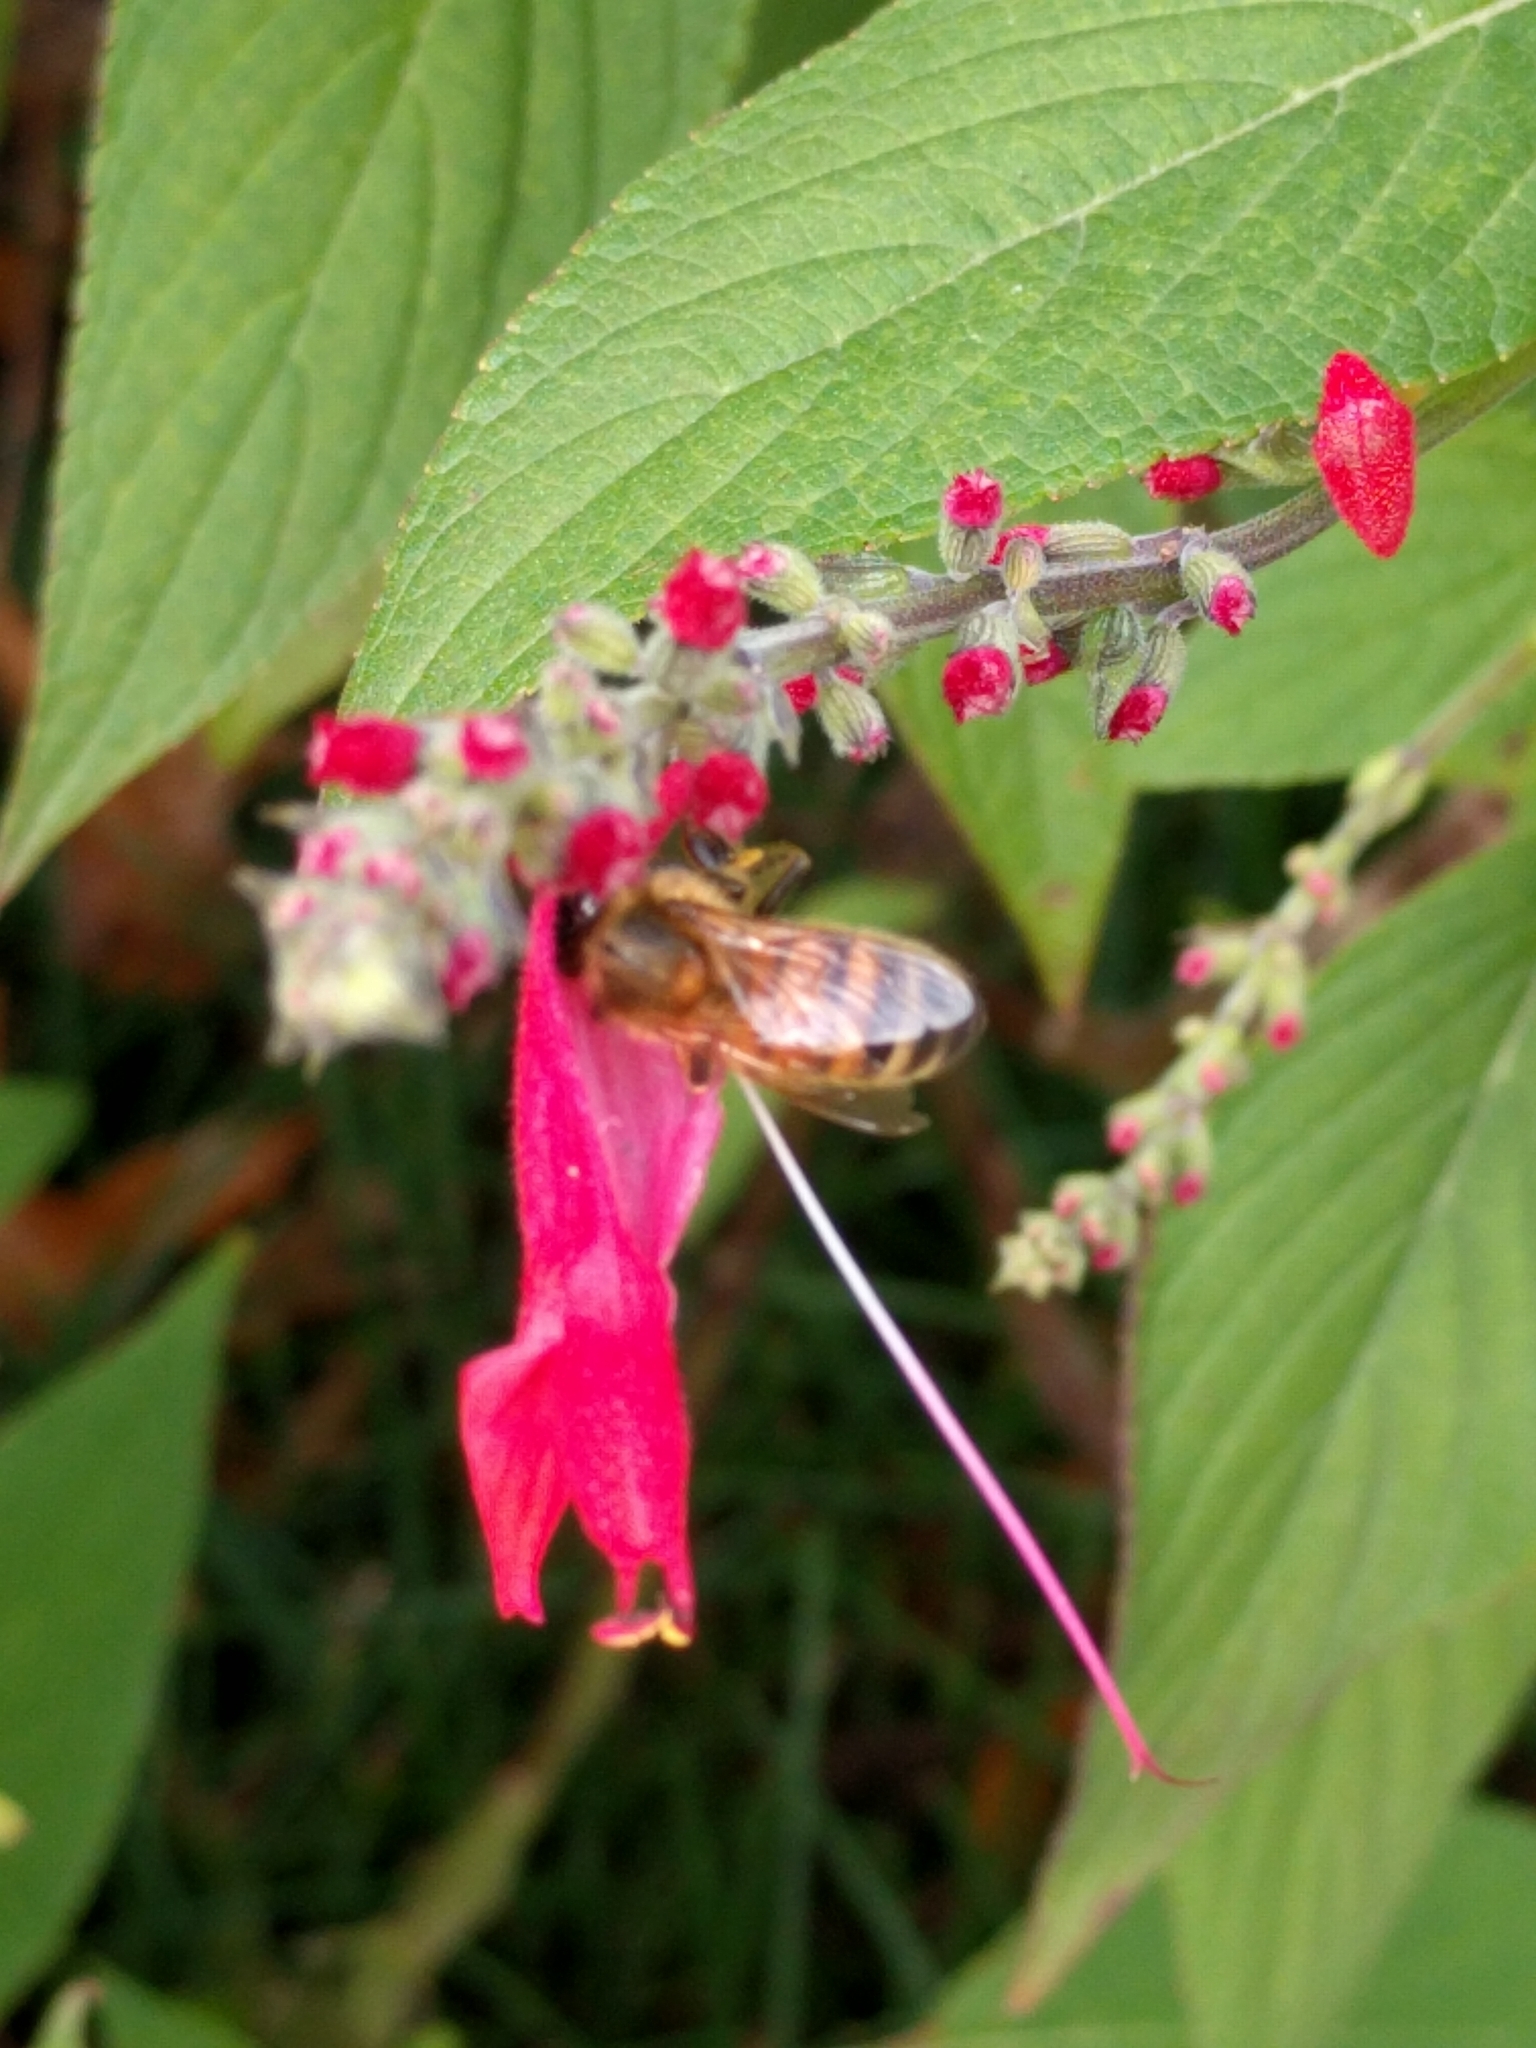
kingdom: Animalia
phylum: Arthropoda
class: Insecta
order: Hymenoptera
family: Apidae
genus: Apis
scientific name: Apis mellifera
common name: Honey bee
